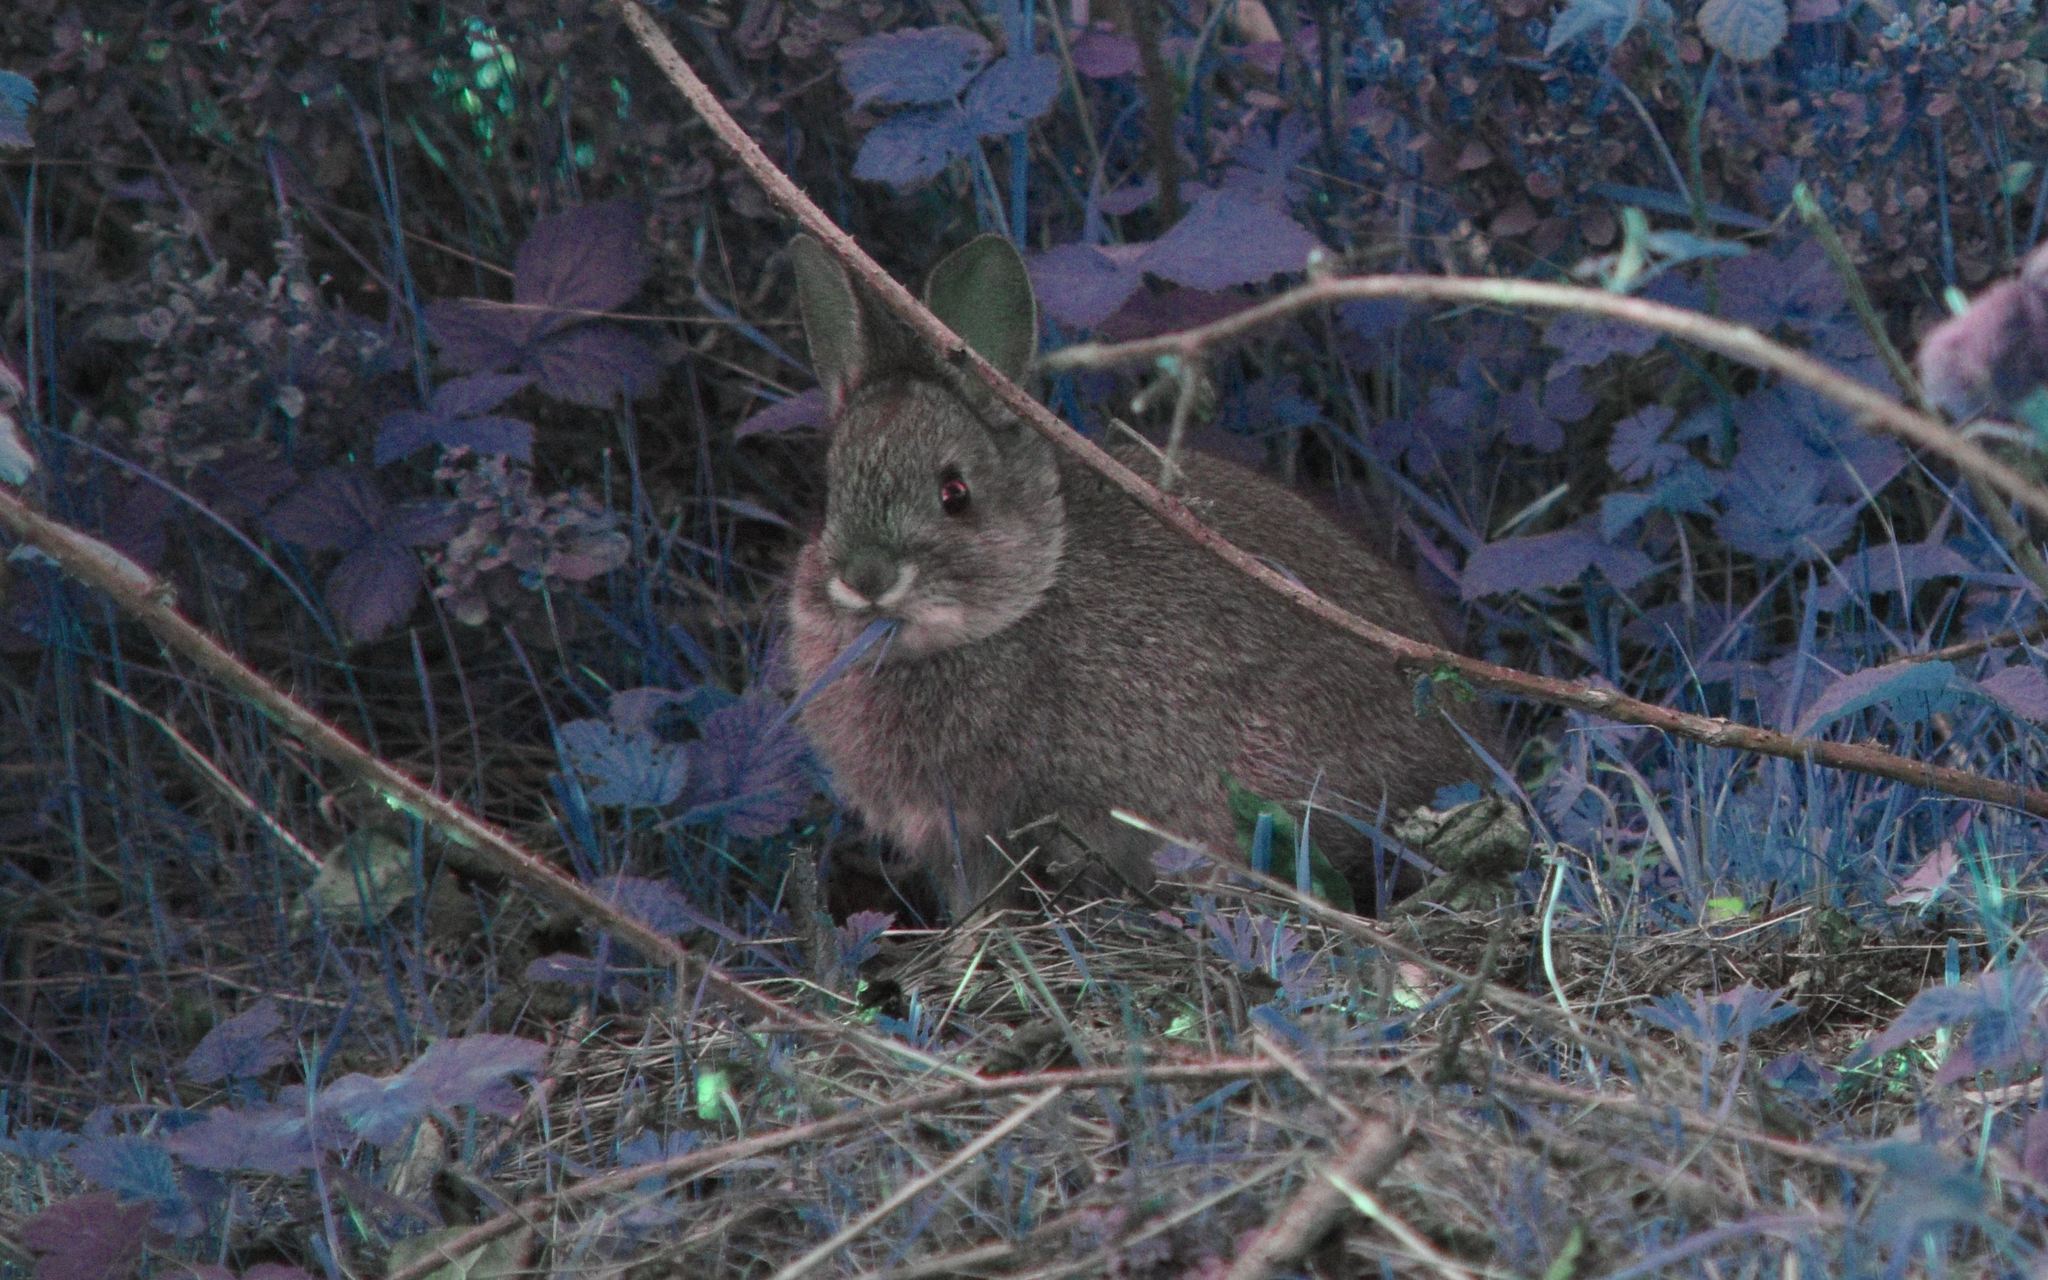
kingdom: Animalia
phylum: Chordata
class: Mammalia
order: Lagomorpha
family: Leporidae
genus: Sylvilagus
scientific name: Sylvilagus bachmani
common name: Brush rabbit
